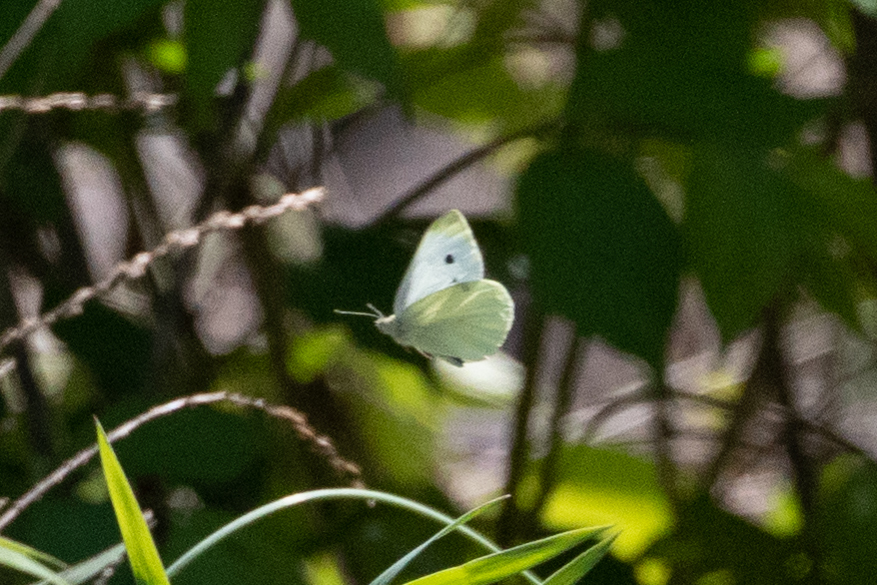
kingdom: Animalia
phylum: Arthropoda
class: Insecta
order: Lepidoptera
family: Pieridae
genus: Pieris
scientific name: Pieris rapae
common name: Small white
